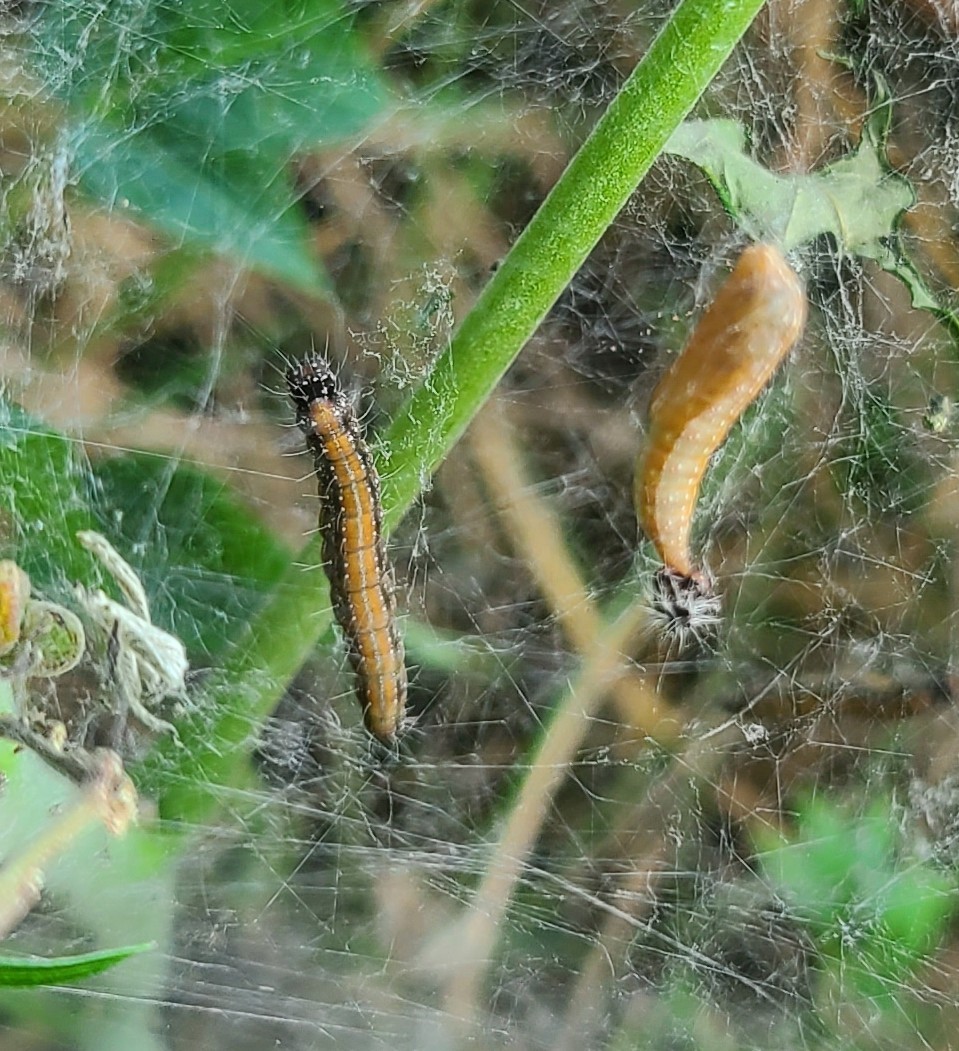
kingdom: Animalia
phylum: Arthropoda
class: Insecta
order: Lepidoptera
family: Attevidae
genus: Atteva
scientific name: Atteva punctella
